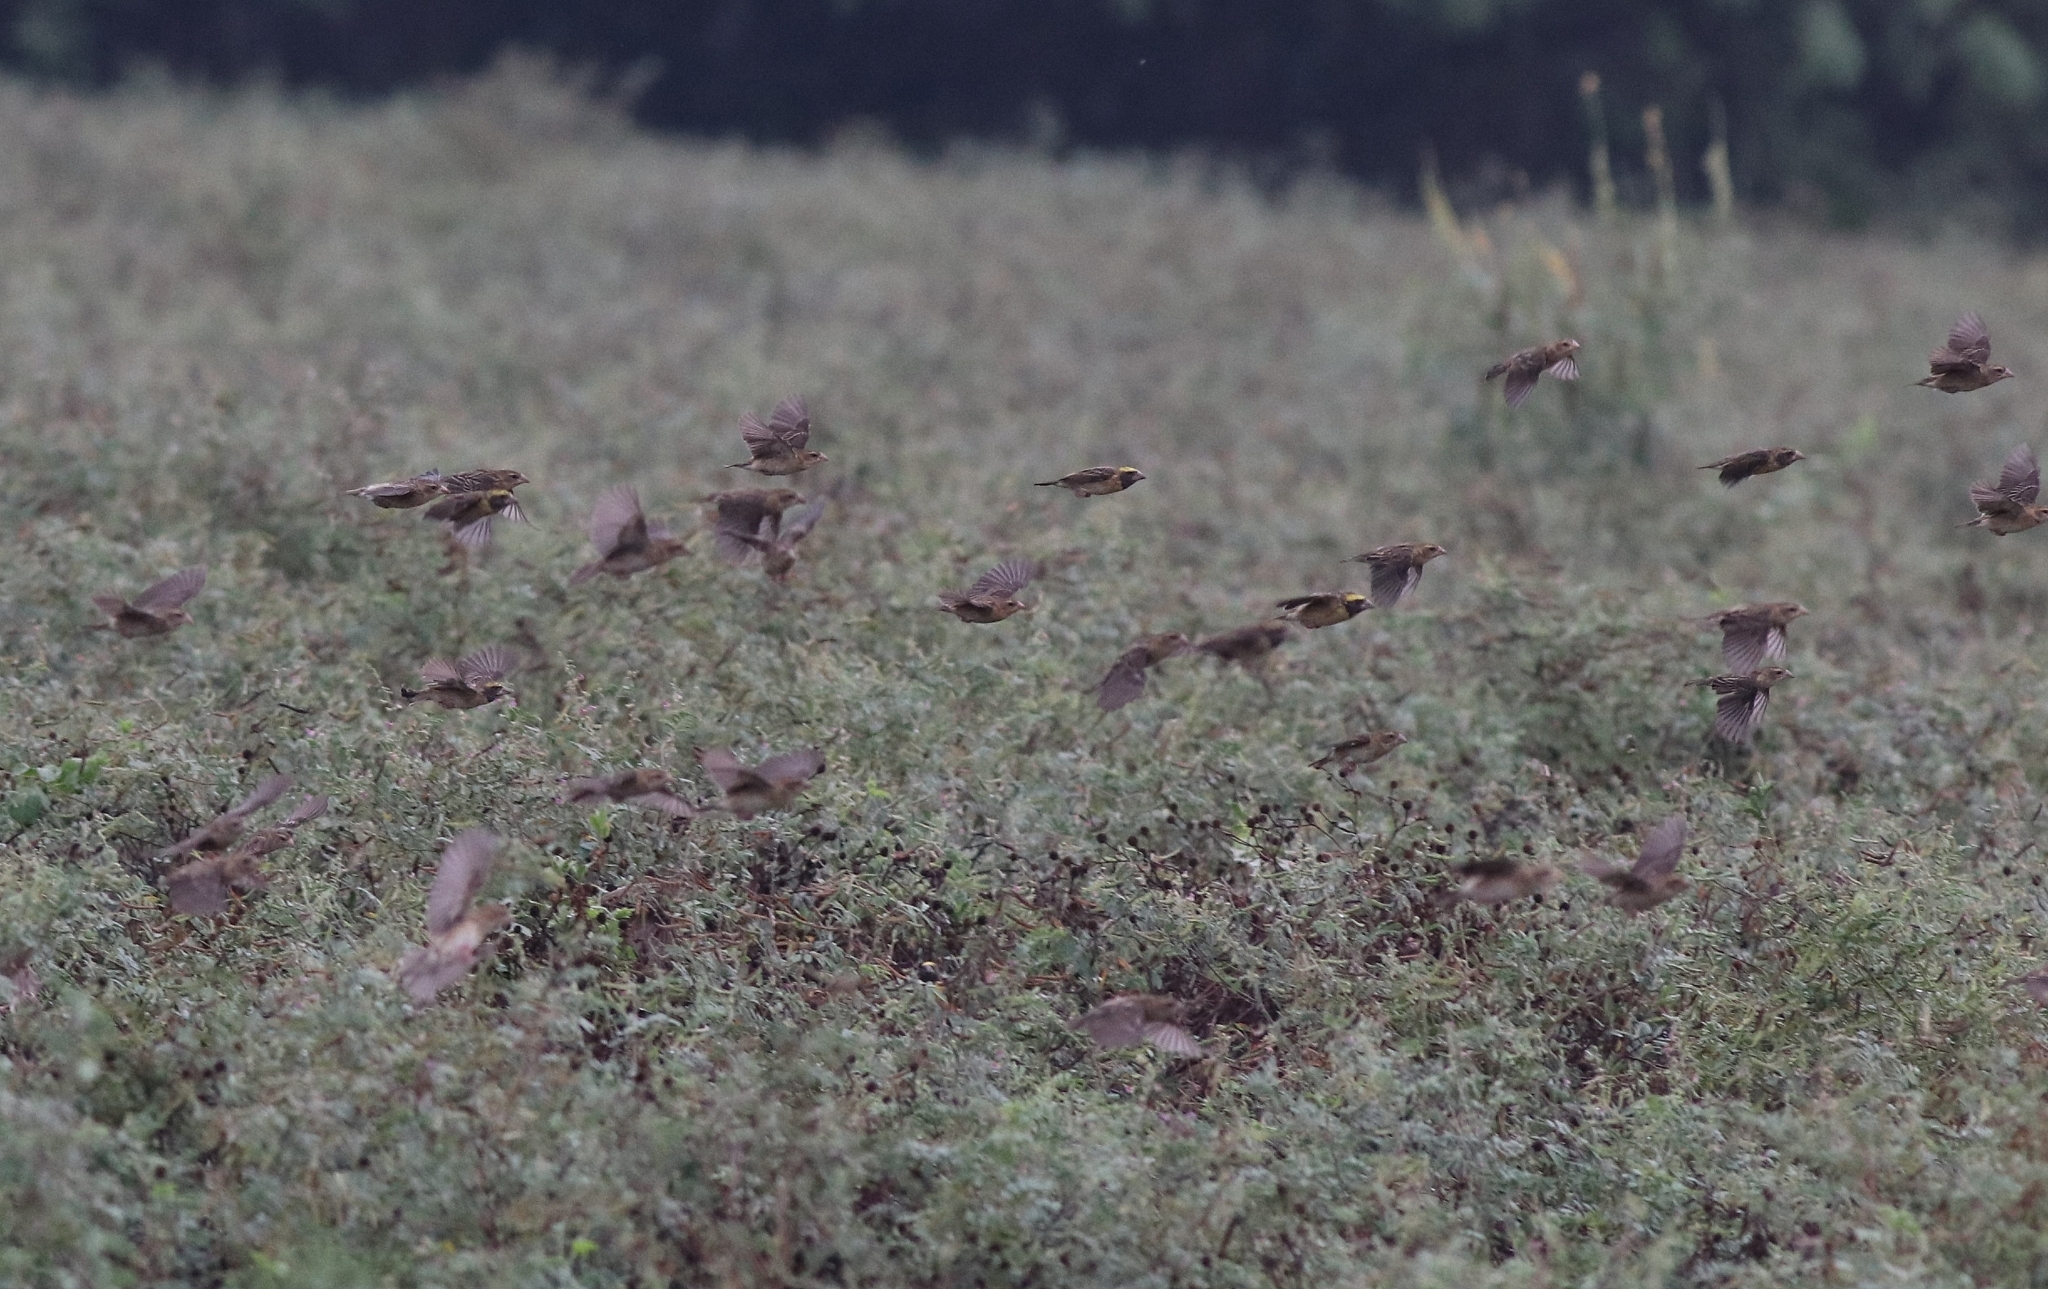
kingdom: Animalia
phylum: Chordata
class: Aves
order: Passeriformes
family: Ploceidae
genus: Ploceus
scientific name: Ploceus philippinus
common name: Baya weaver
